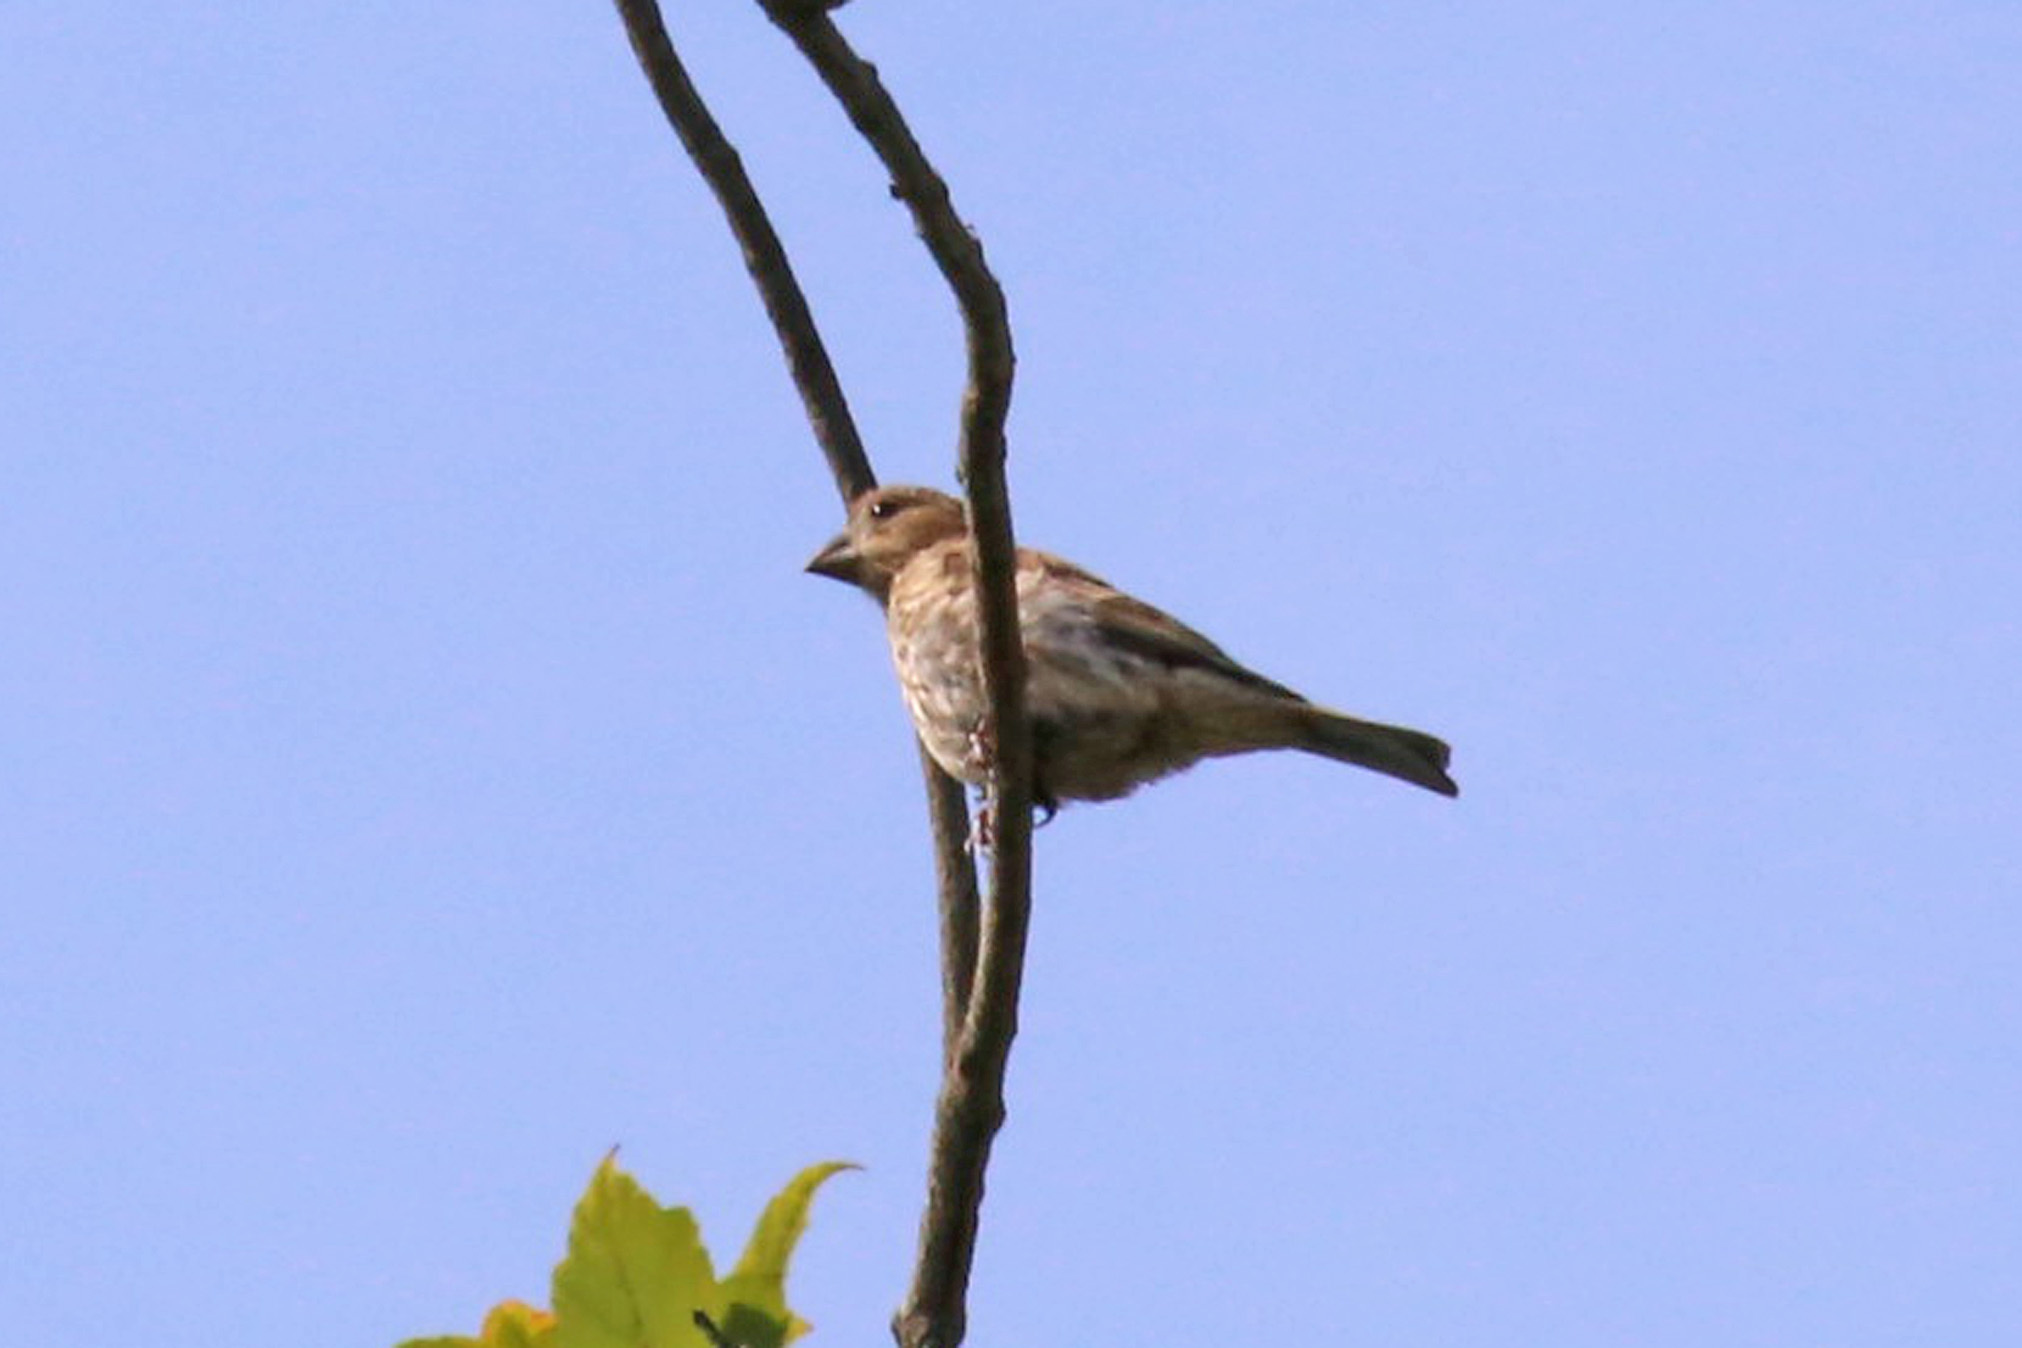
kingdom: Animalia
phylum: Chordata
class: Aves
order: Passeriformes
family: Icteridae
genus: Molothrus
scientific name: Molothrus ater
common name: Brown-headed cowbird
